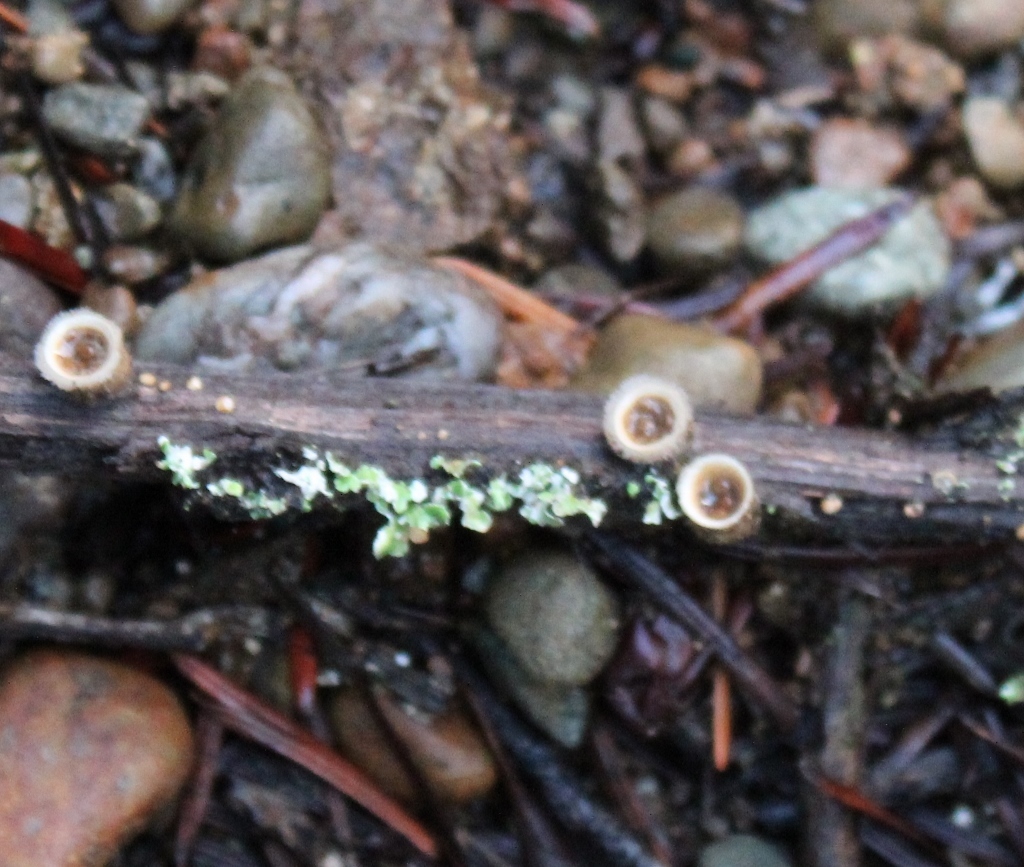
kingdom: Fungi
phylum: Basidiomycota
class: Agaricomycetes
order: Agaricales
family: Agaricaceae
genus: Nidula
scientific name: Nidula niveotomentosa
